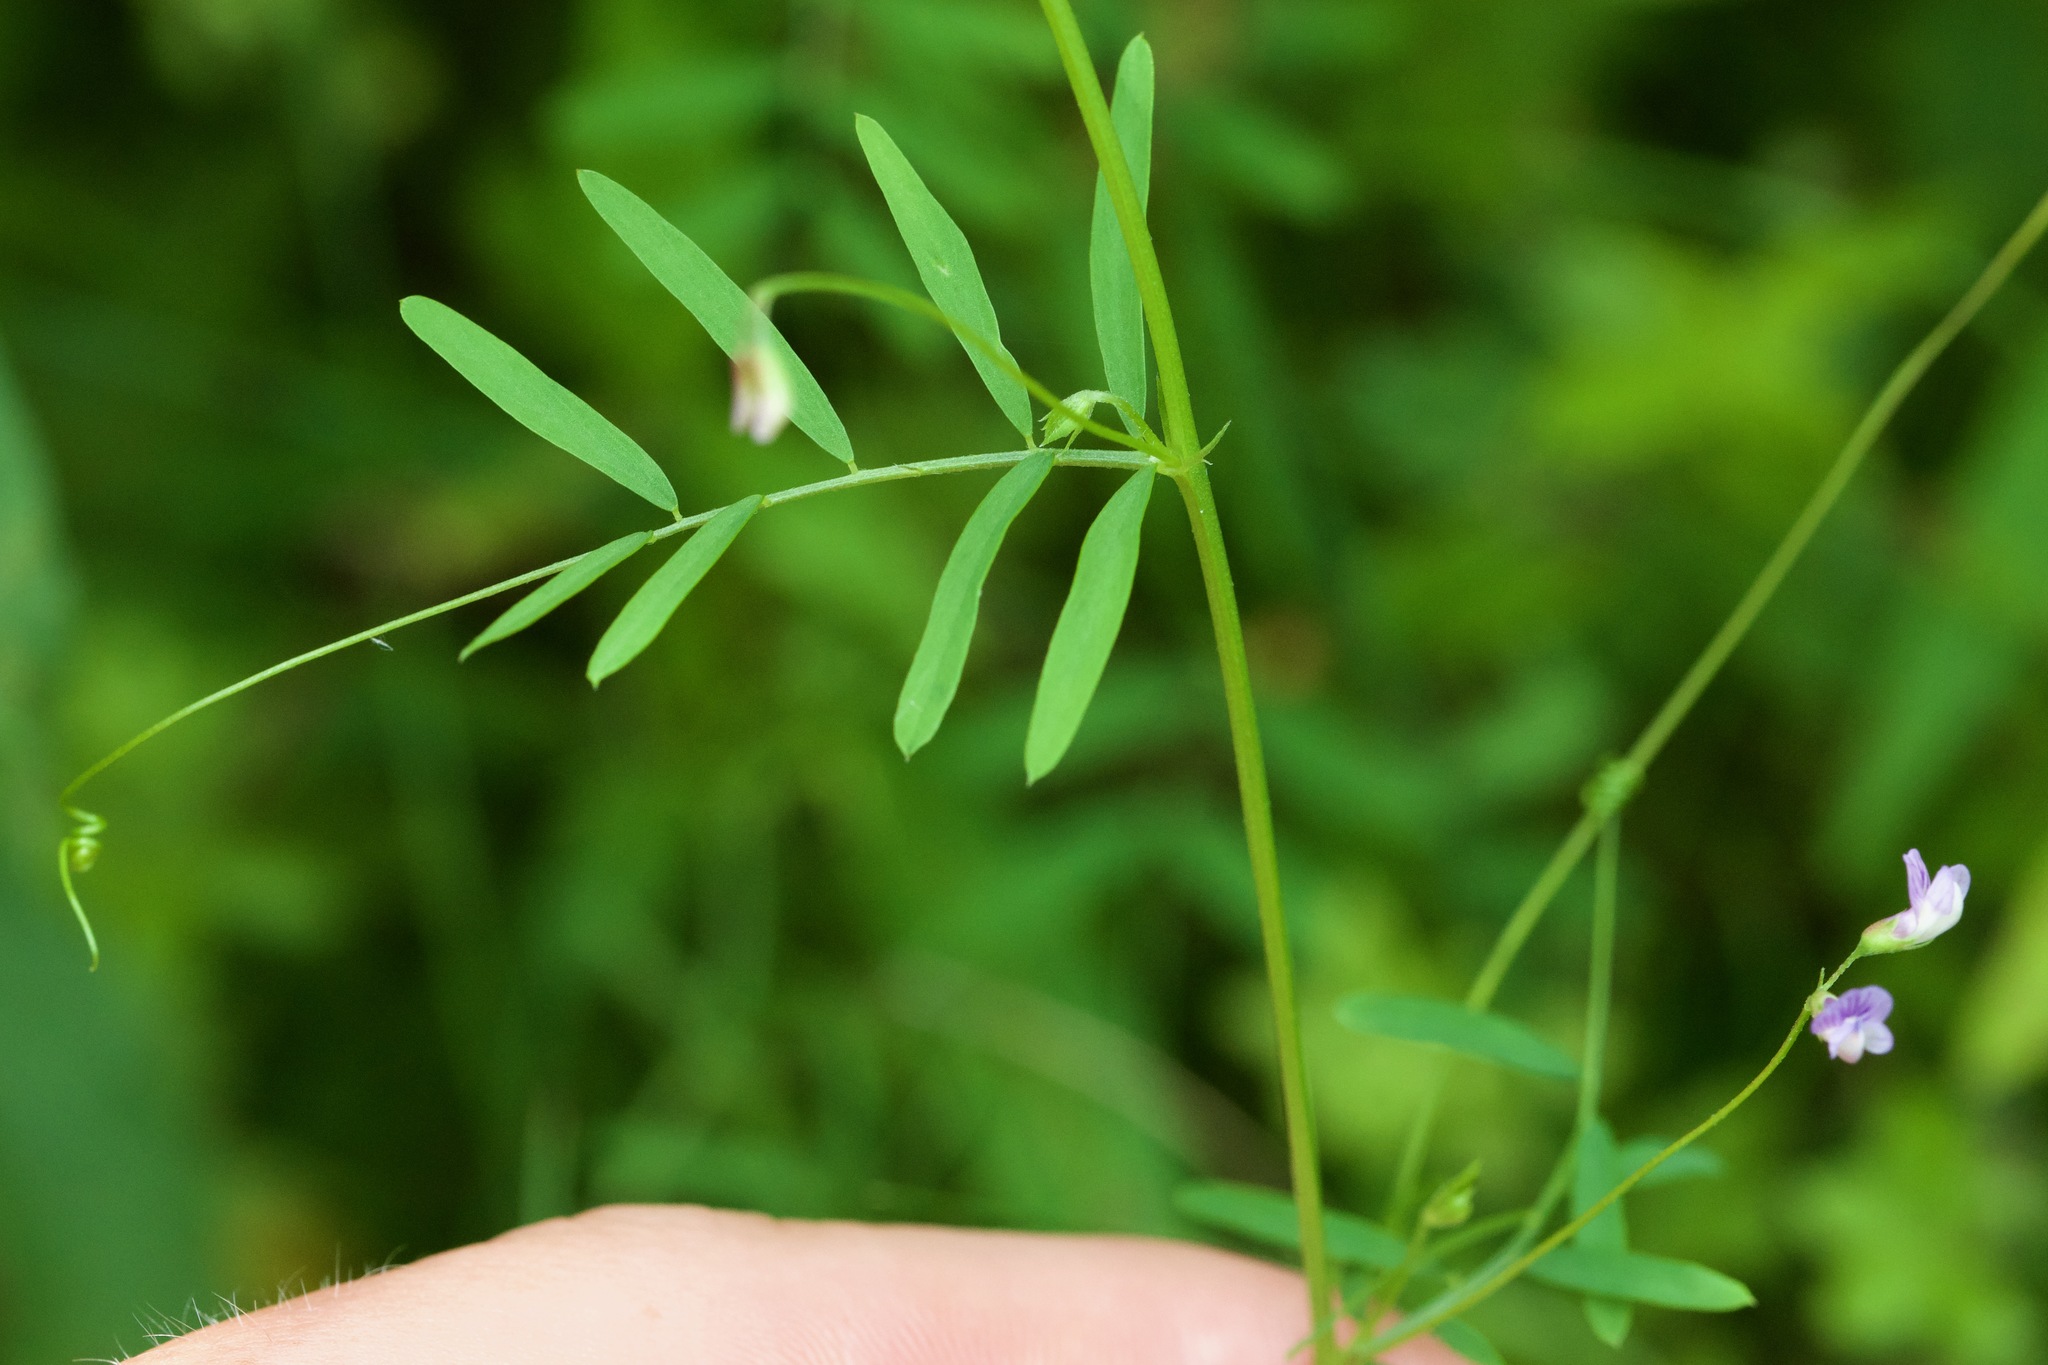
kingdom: Plantae
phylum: Tracheophyta
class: Magnoliopsida
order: Fabales
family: Fabaceae
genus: Vicia
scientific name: Vicia tetrasperma
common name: Smooth tare
